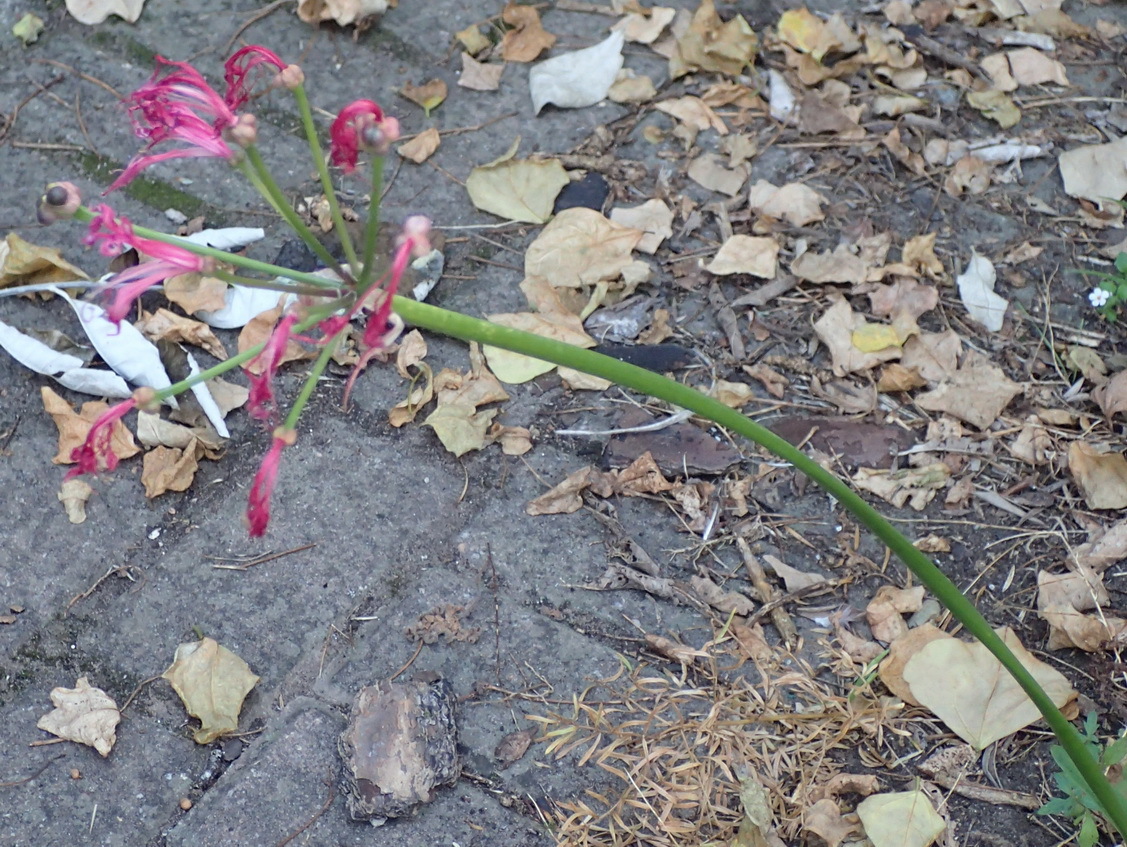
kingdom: Plantae
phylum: Tracheophyta
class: Liliopsida
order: Asparagales
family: Amaryllidaceae
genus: Nerine
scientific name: Nerine humilis
